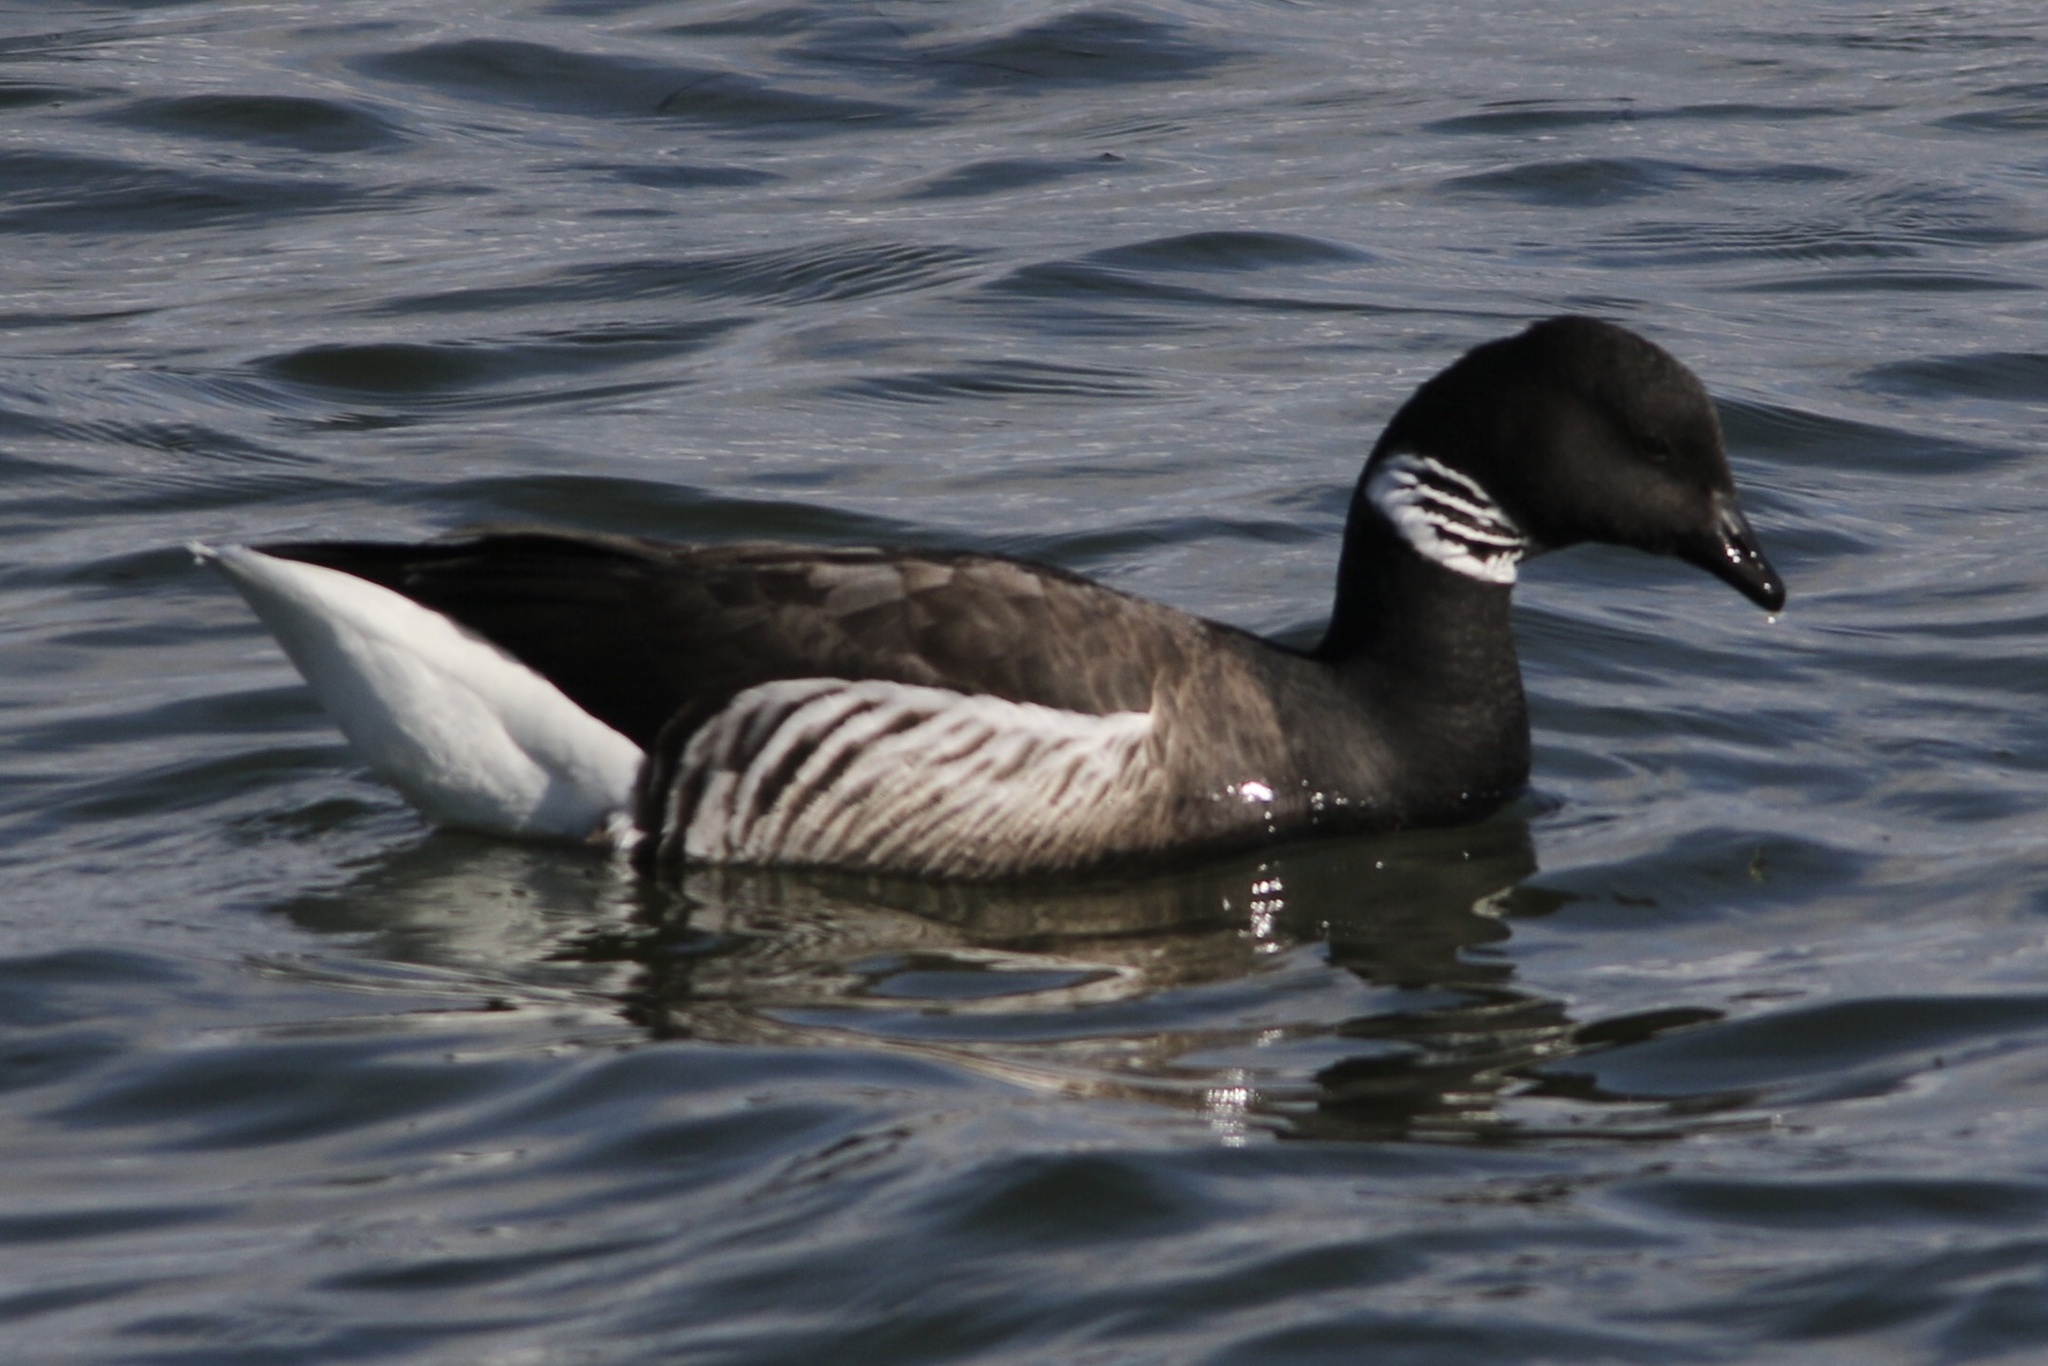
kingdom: Animalia
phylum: Chordata
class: Aves
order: Anseriformes
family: Anatidae
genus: Branta
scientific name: Branta bernicla
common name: Brant goose
